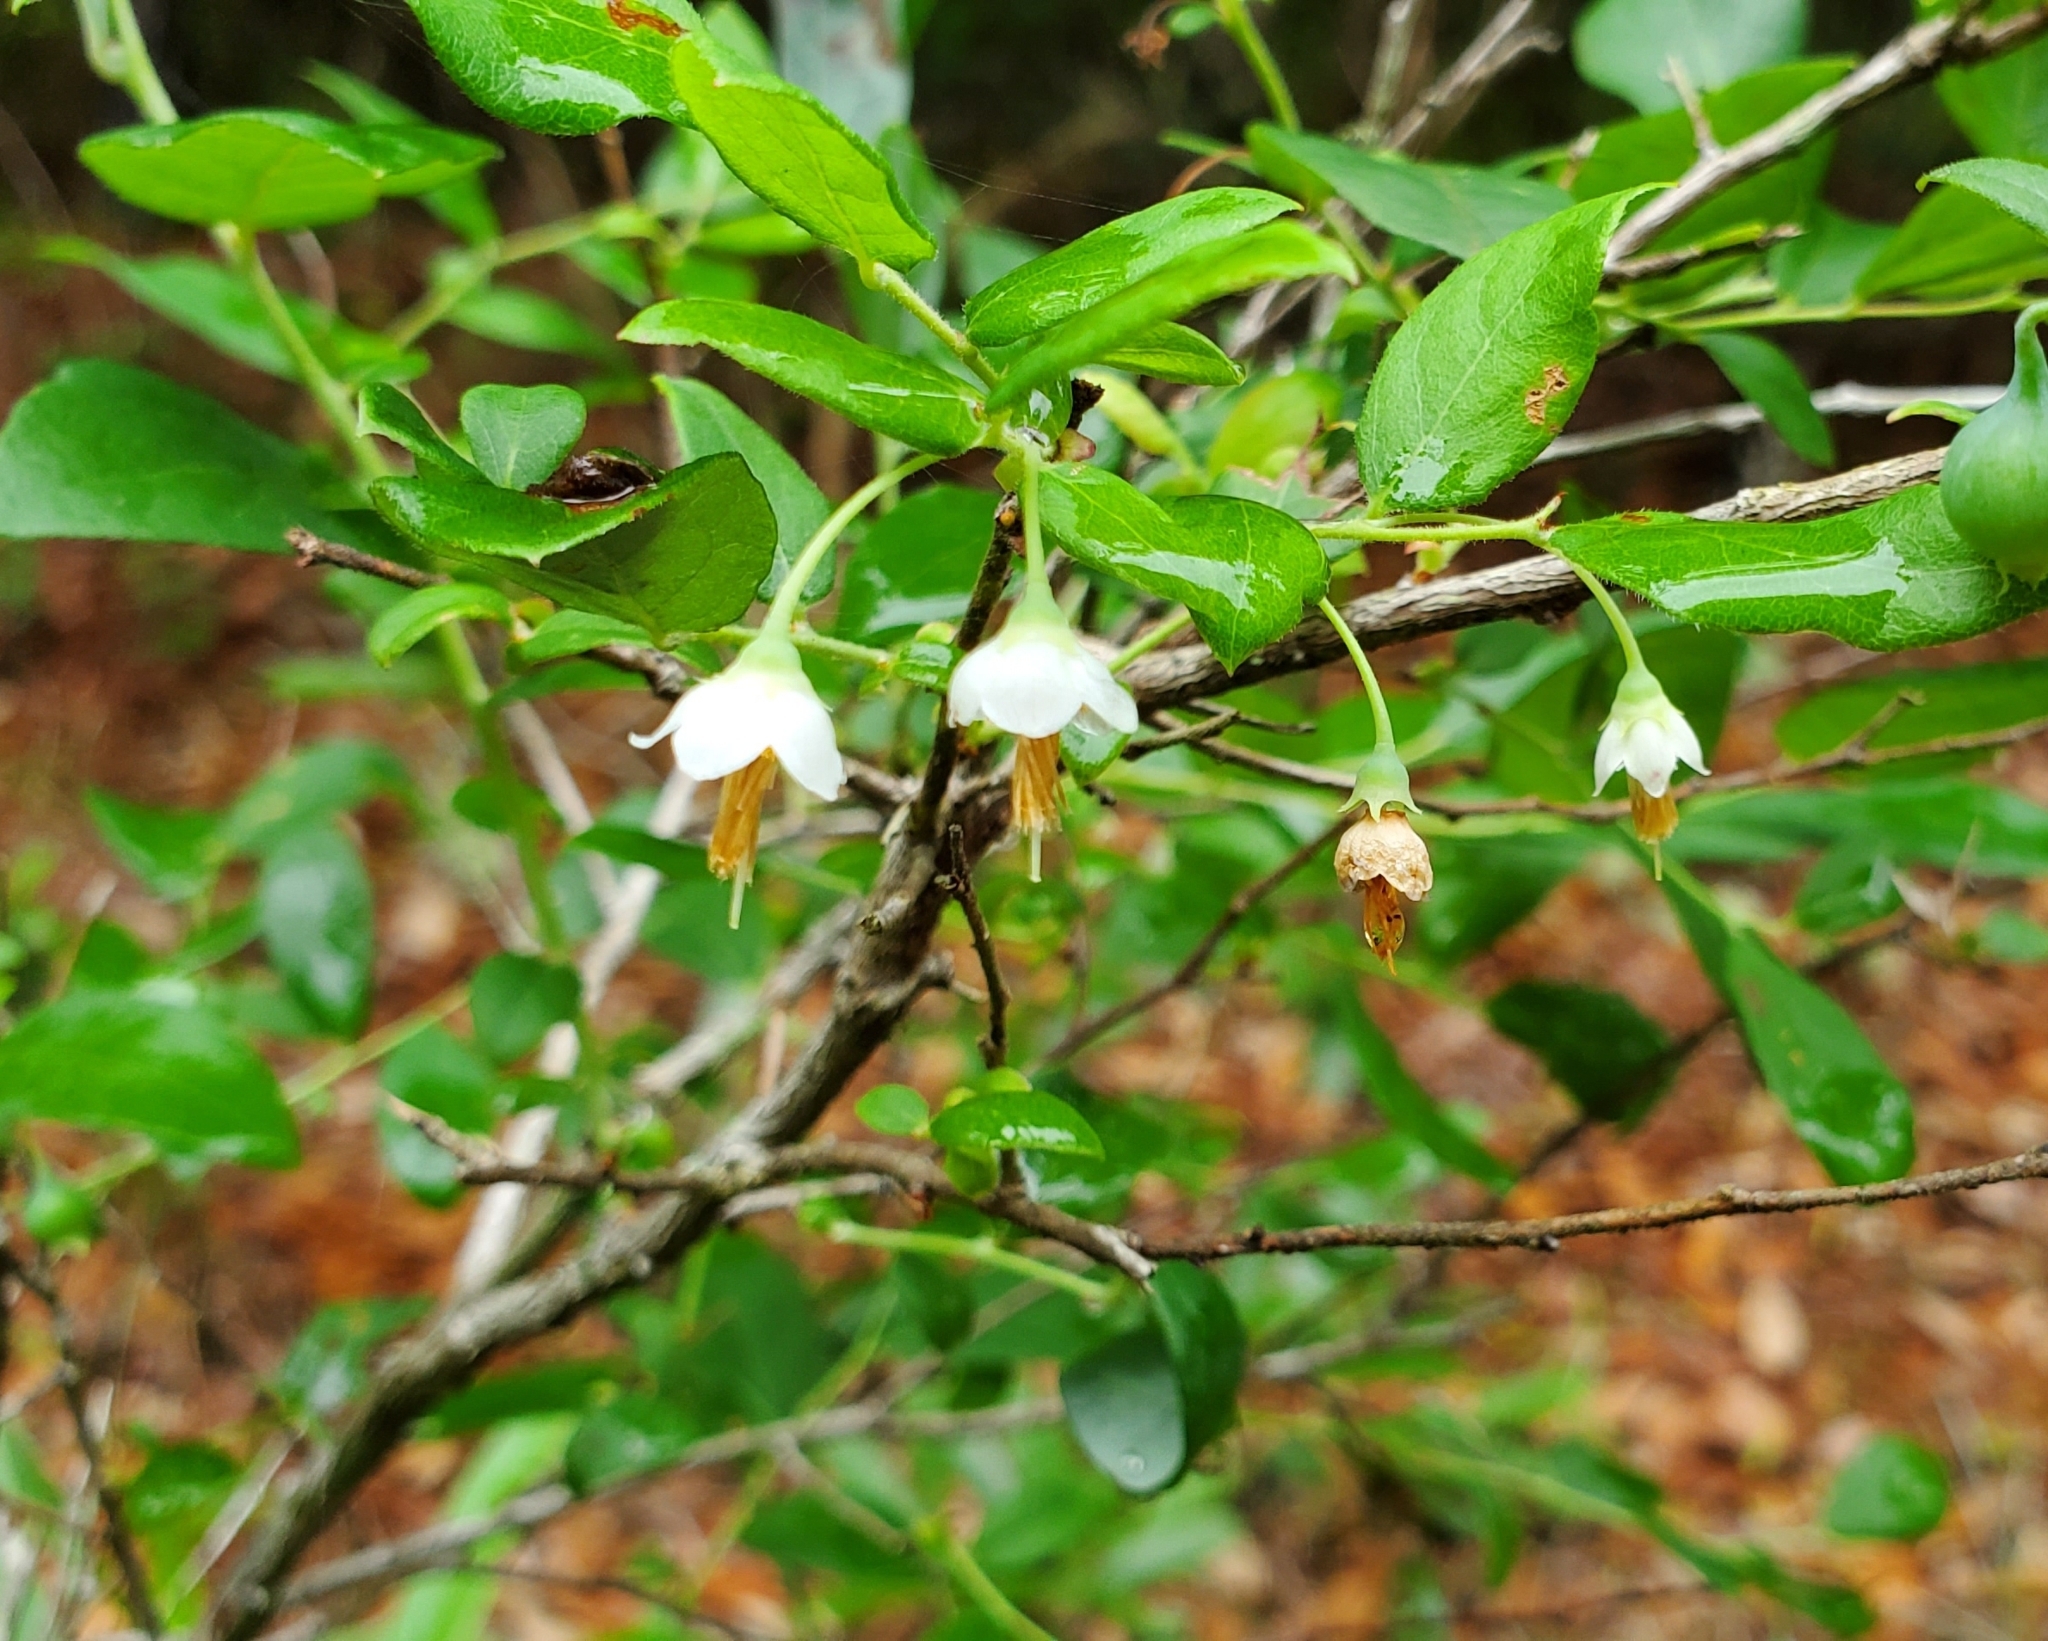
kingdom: Plantae
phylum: Tracheophyta
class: Magnoliopsida
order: Ericales
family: Ericaceae
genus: Vaccinium
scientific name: Vaccinium stamineum
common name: Deerberry
